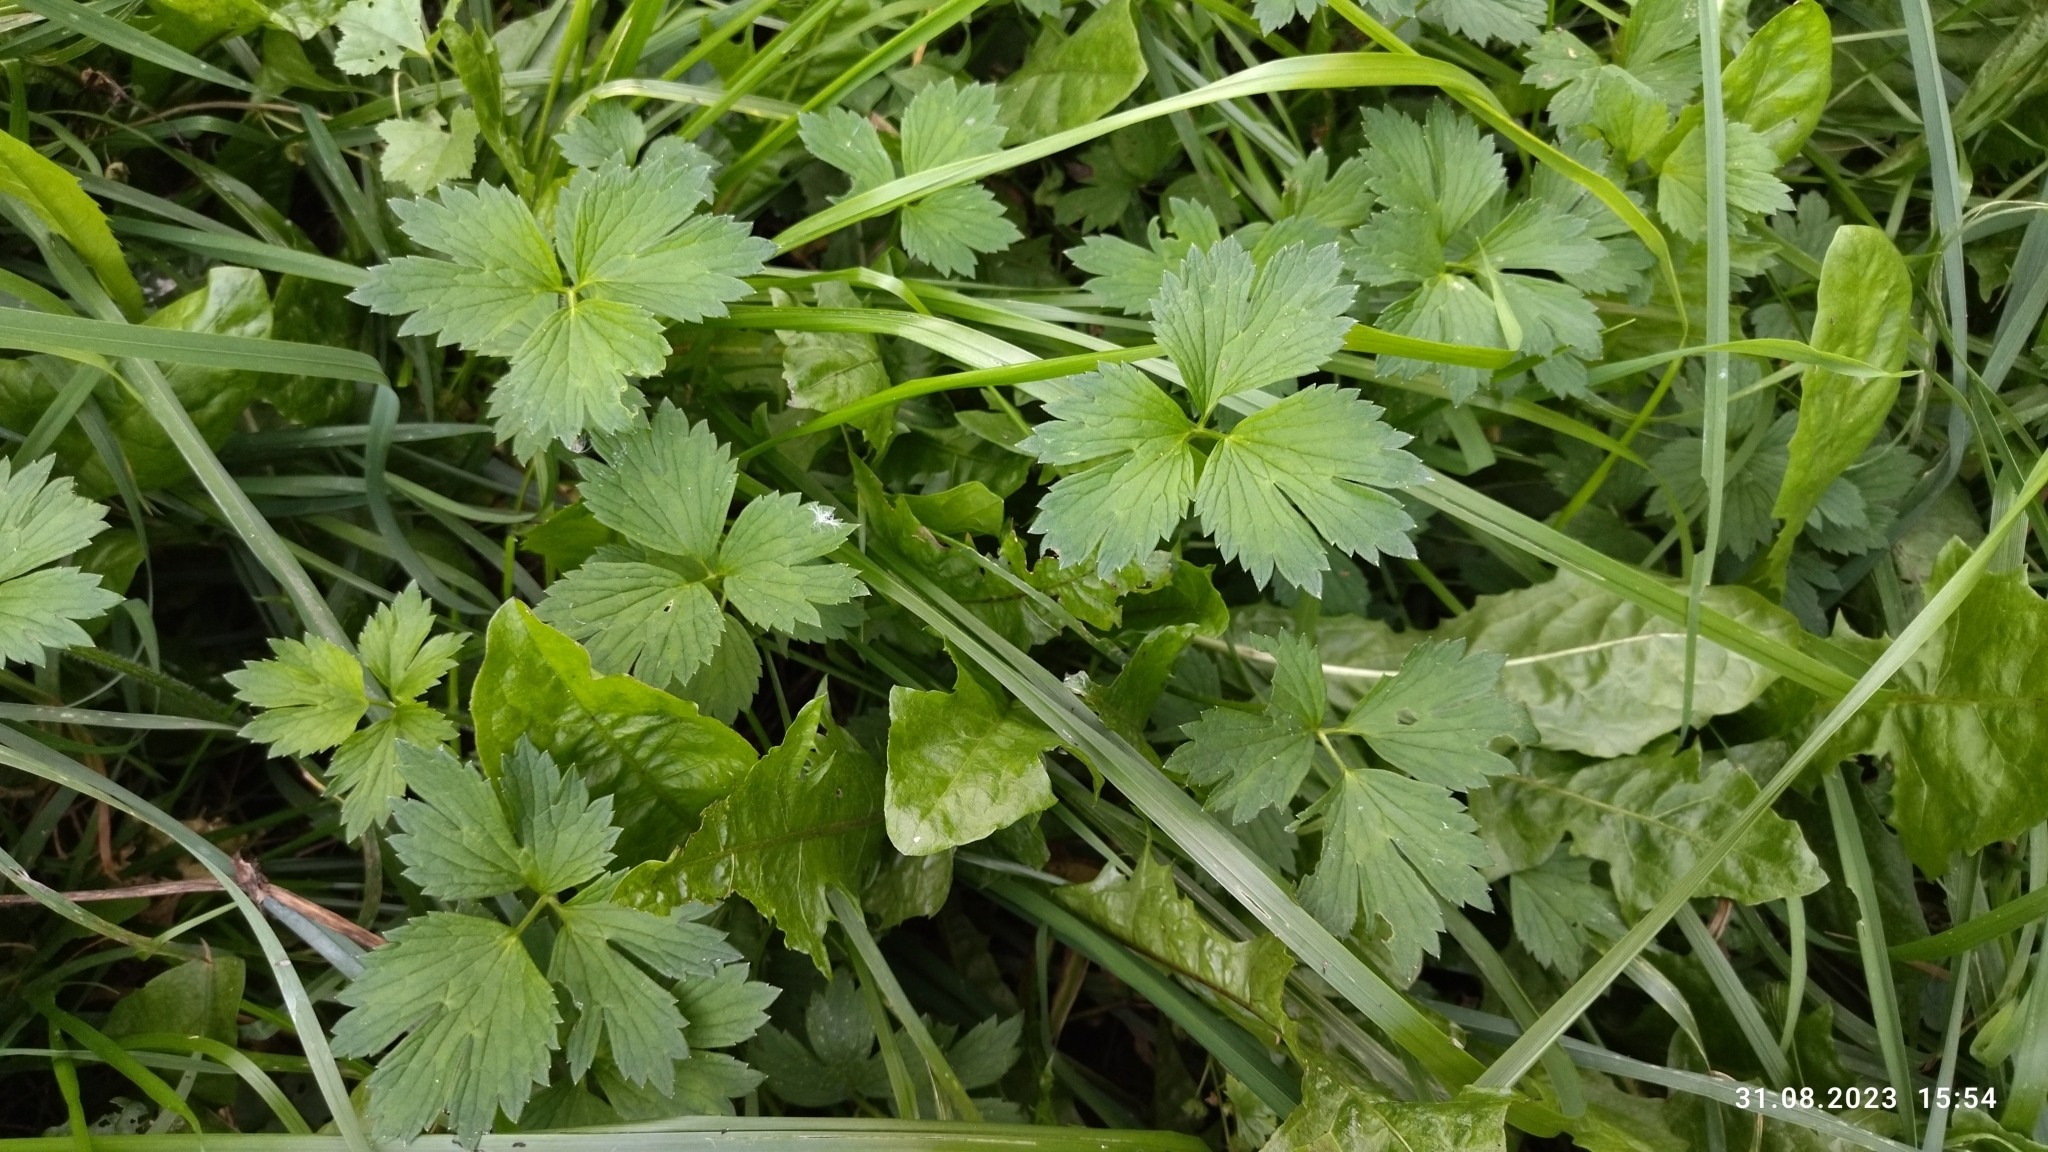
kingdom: Plantae
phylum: Tracheophyta
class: Magnoliopsida
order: Ranunculales
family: Ranunculaceae
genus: Ranunculus
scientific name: Ranunculus repens
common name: Creeping buttercup
